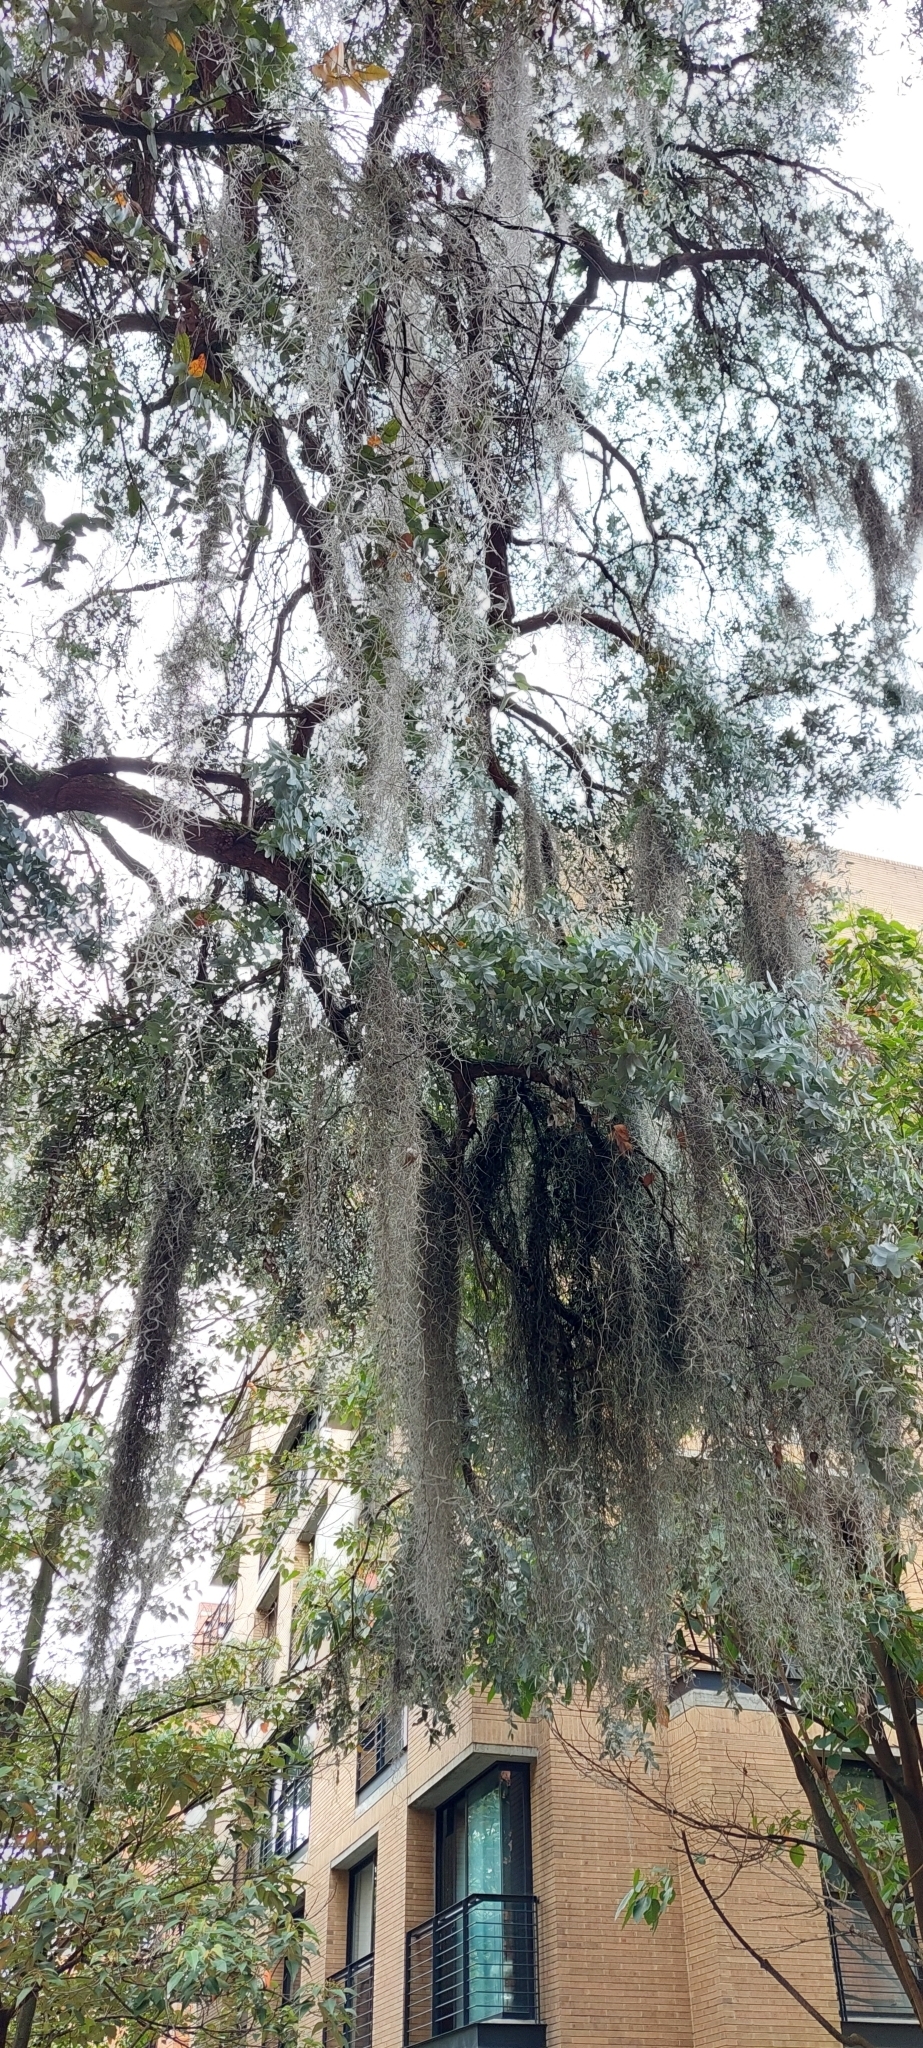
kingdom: Plantae
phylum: Tracheophyta
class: Liliopsida
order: Poales
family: Bromeliaceae
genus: Tillandsia
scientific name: Tillandsia usneoides
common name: Spanish moss
